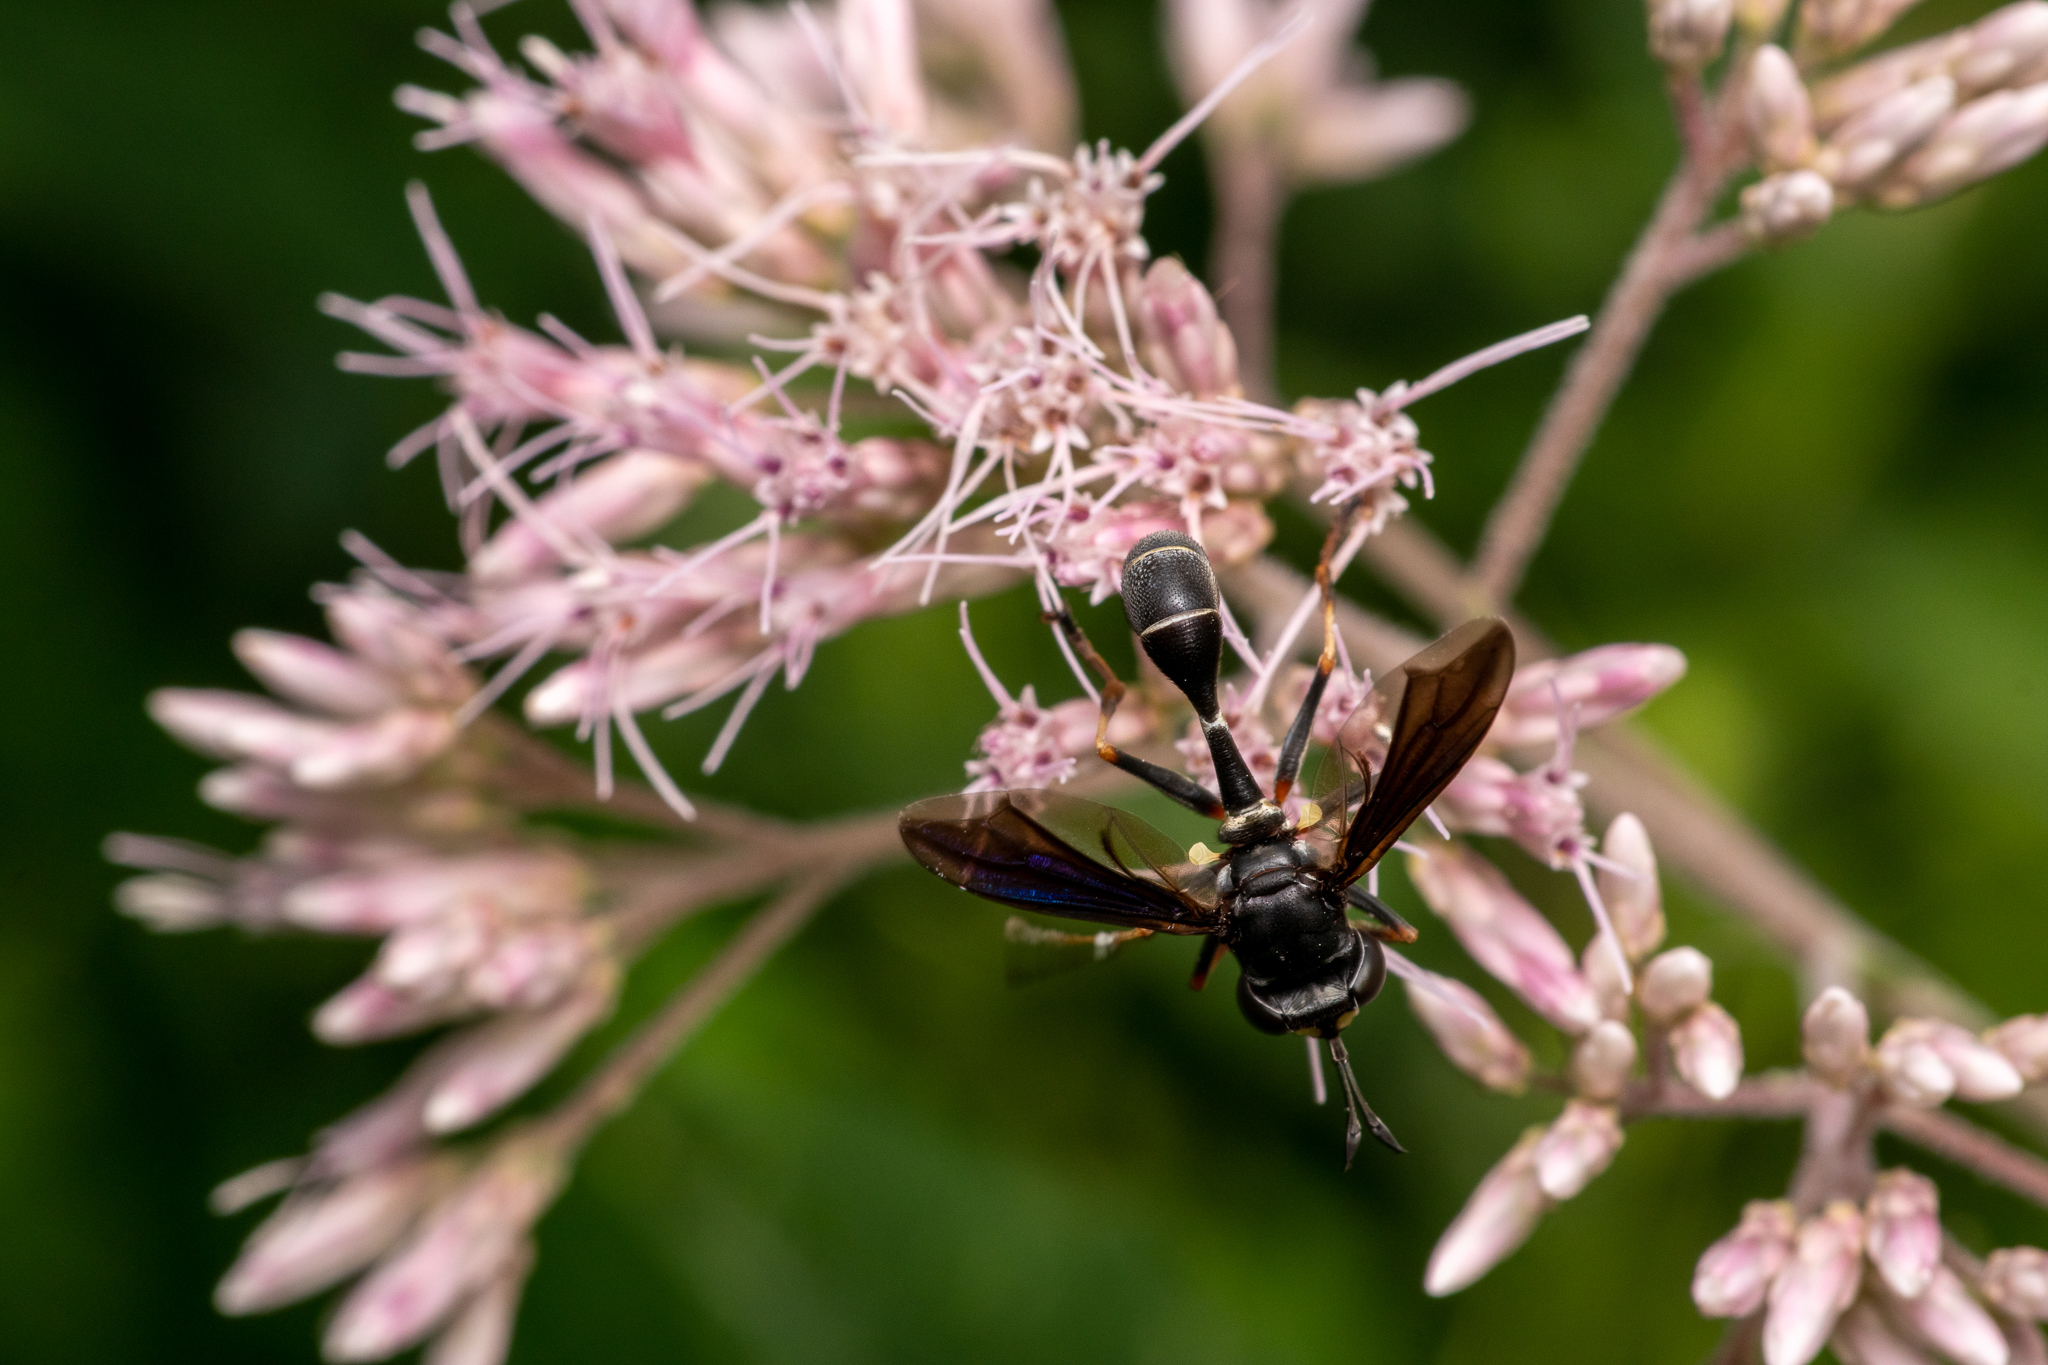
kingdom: Animalia
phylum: Arthropoda
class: Insecta
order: Diptera
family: Conopidae
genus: Physocephala
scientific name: Physocephala tibialis
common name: Common eastern physocephala
